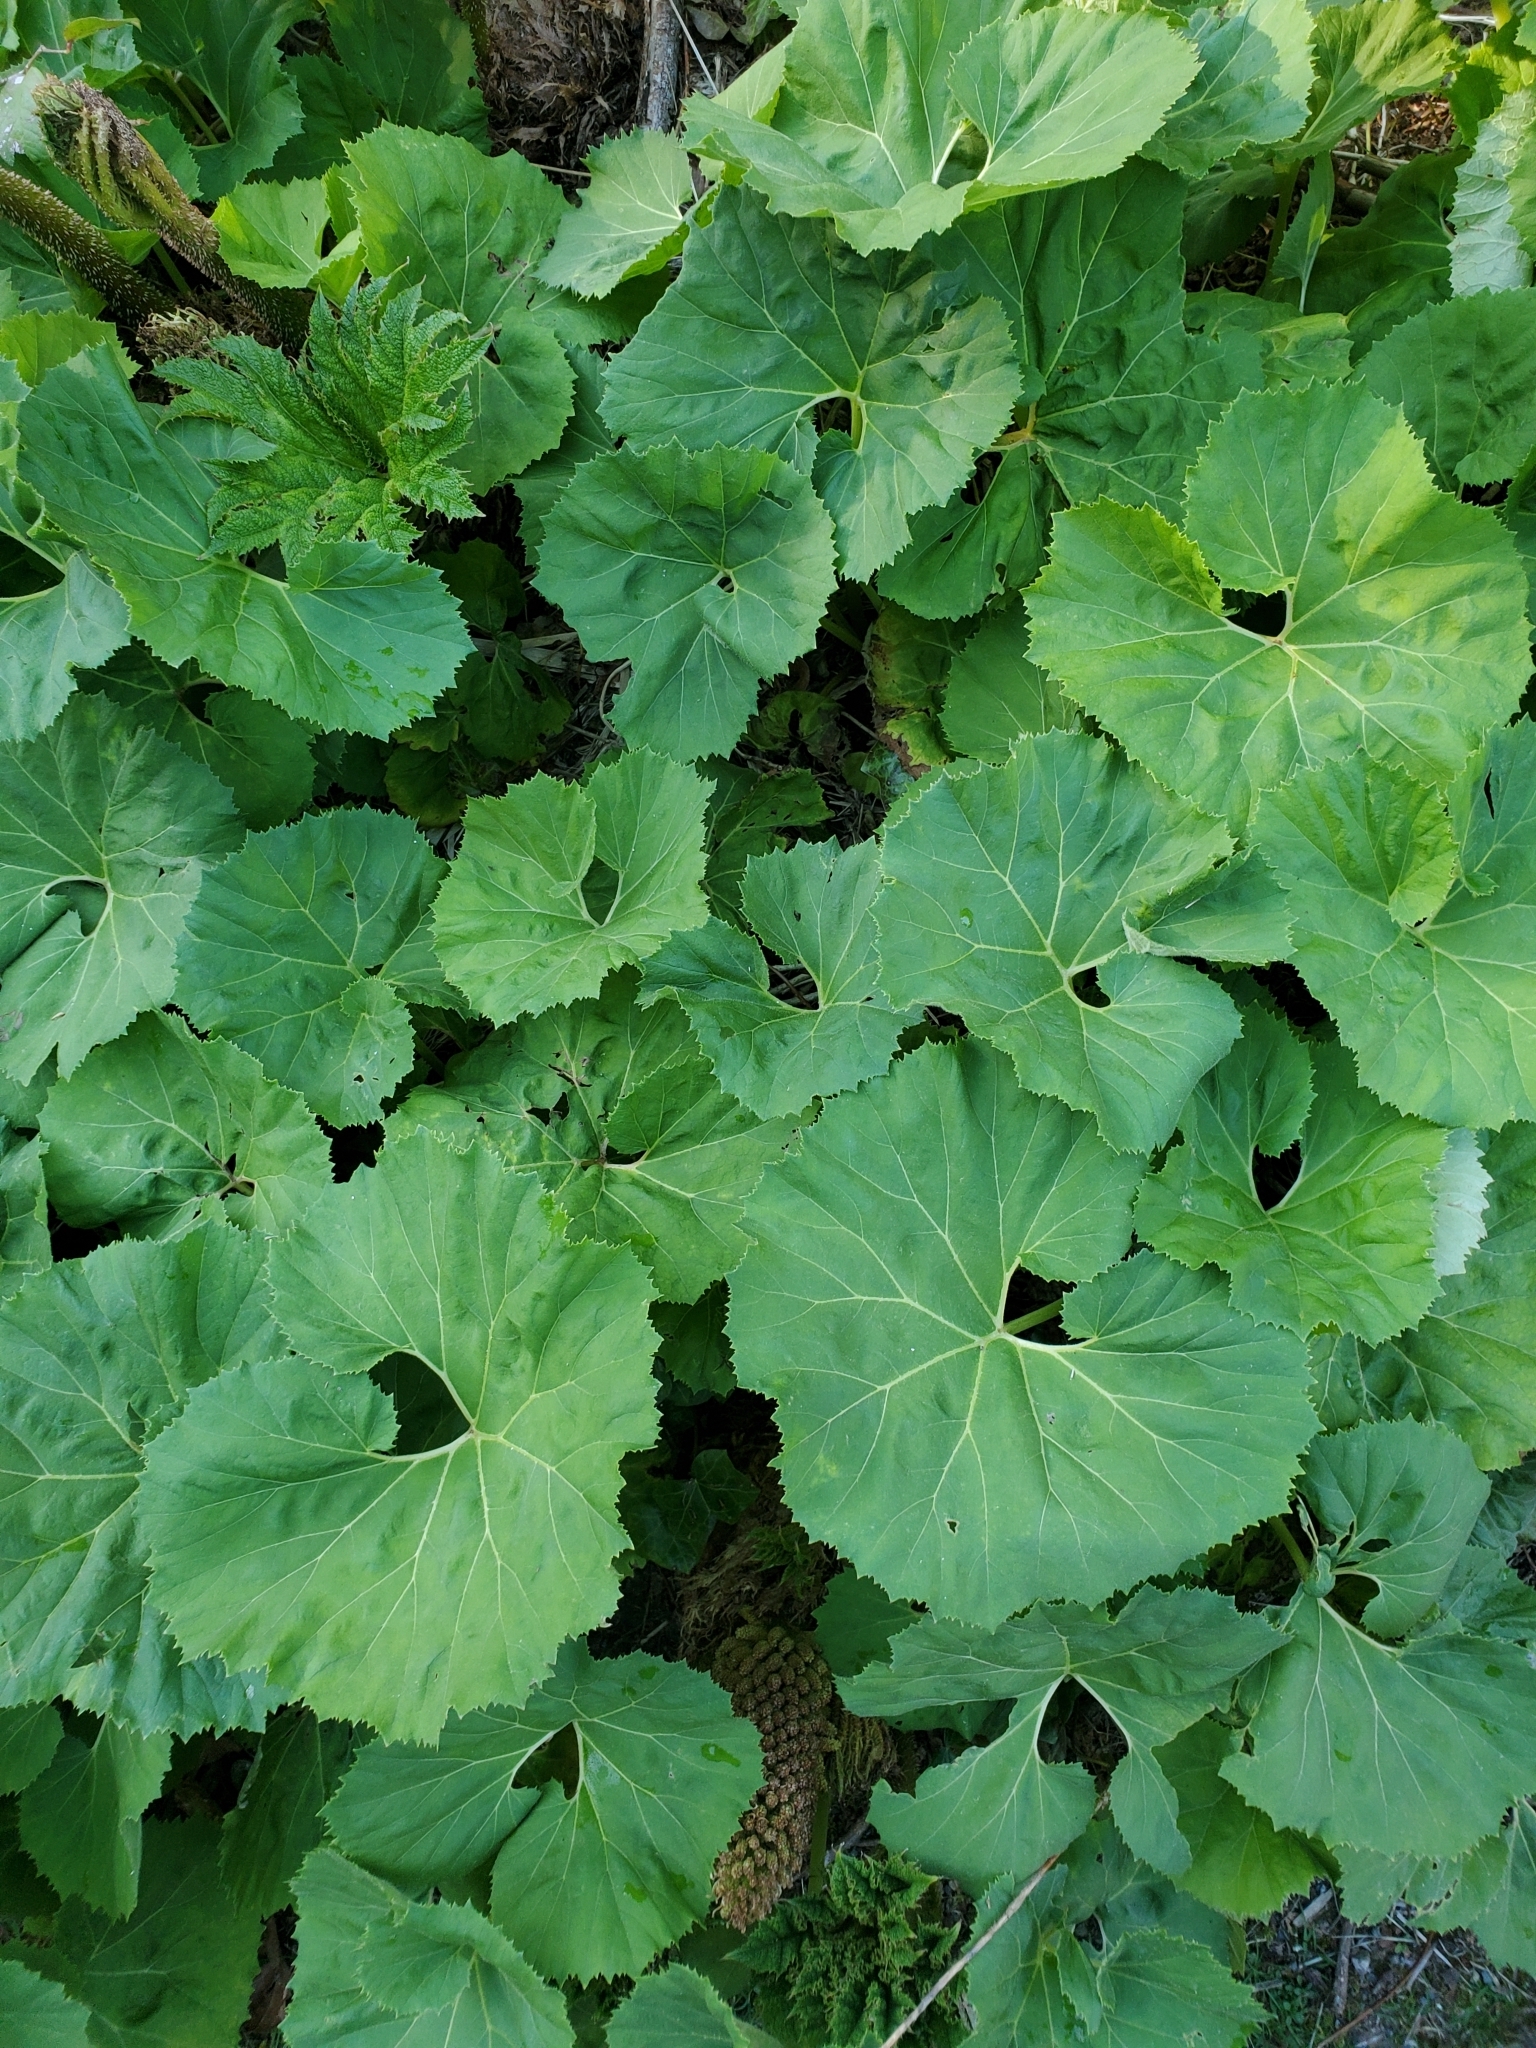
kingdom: Plantae
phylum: Tracheophyta
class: Magnoliopsida
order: Asterales
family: Asteraceae
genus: Petasites
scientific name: Petasites japonicus
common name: Giant butterbur
